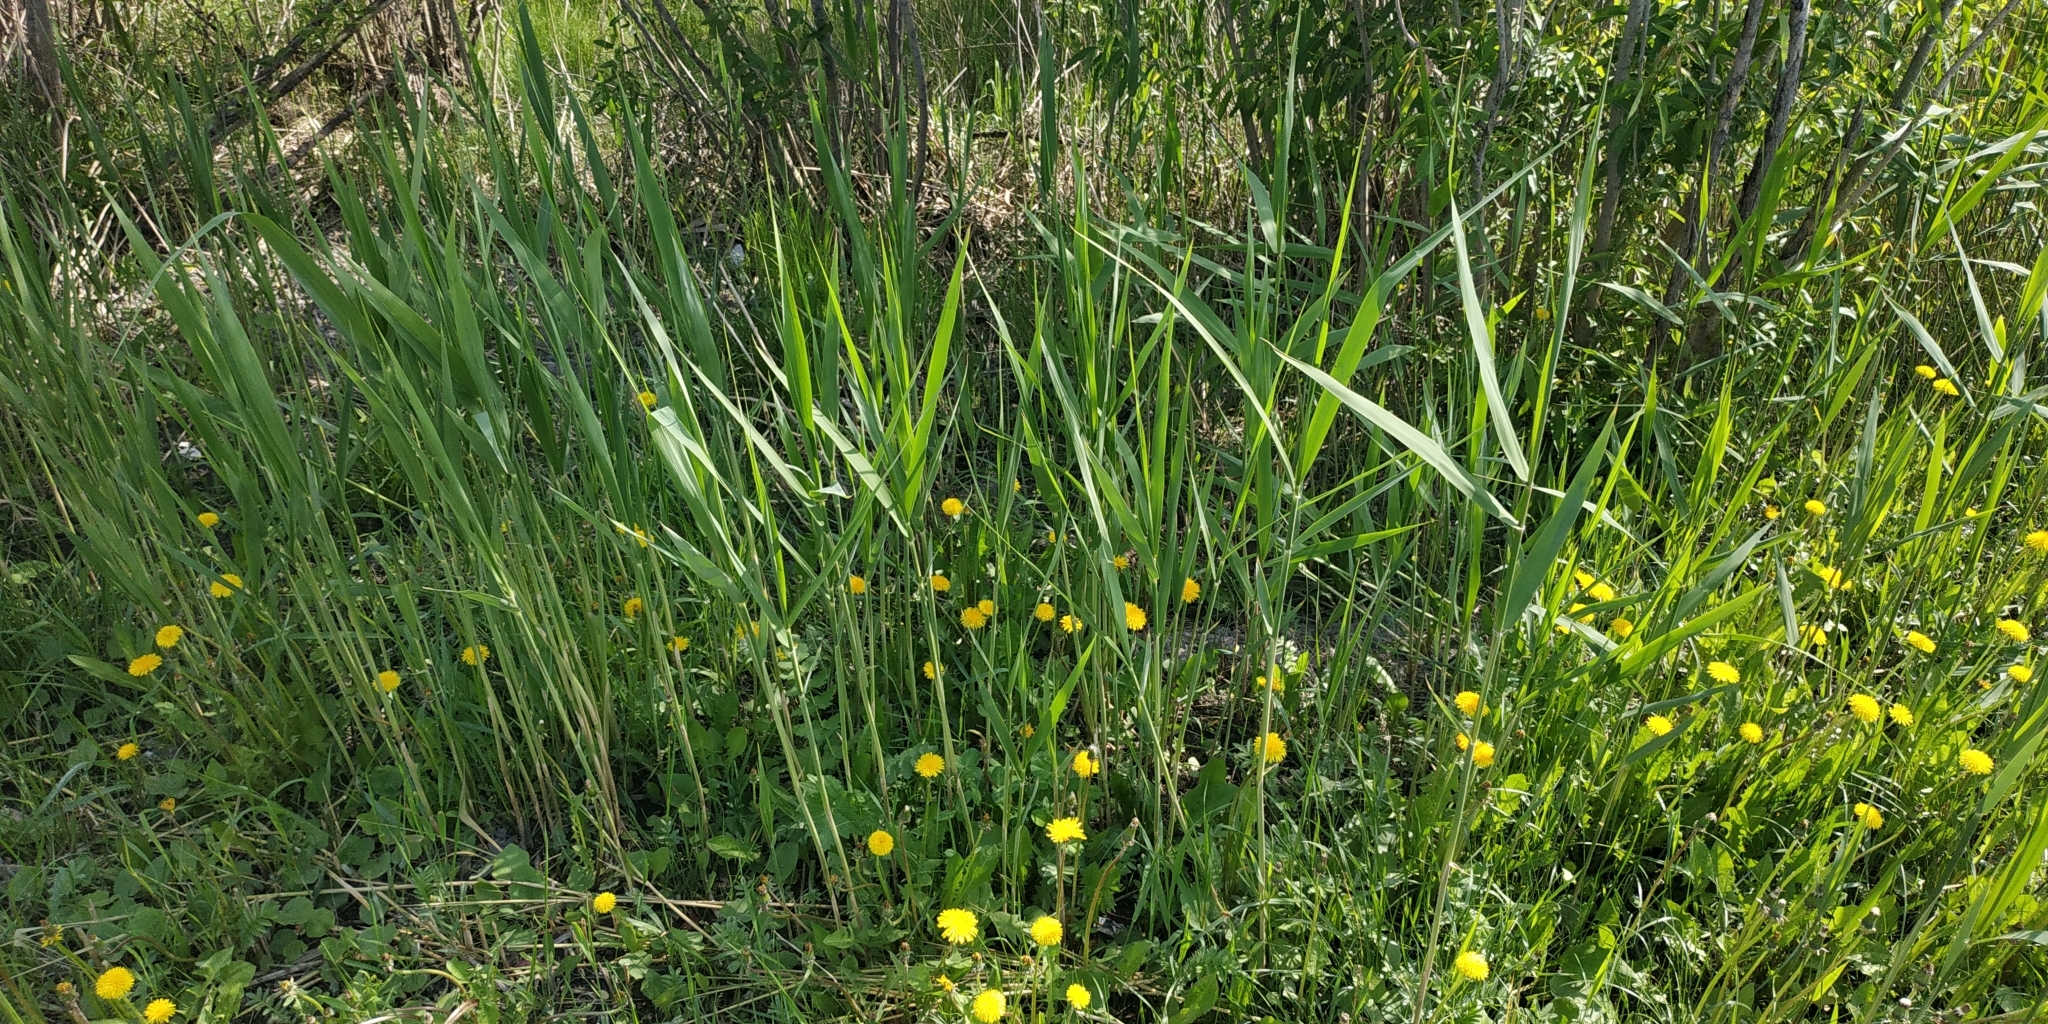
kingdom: Plantae
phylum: Tracheophyta
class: Liliopsida
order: Poales
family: Poaceae
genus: Phragmites
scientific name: Phragmites australis
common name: Common reed
